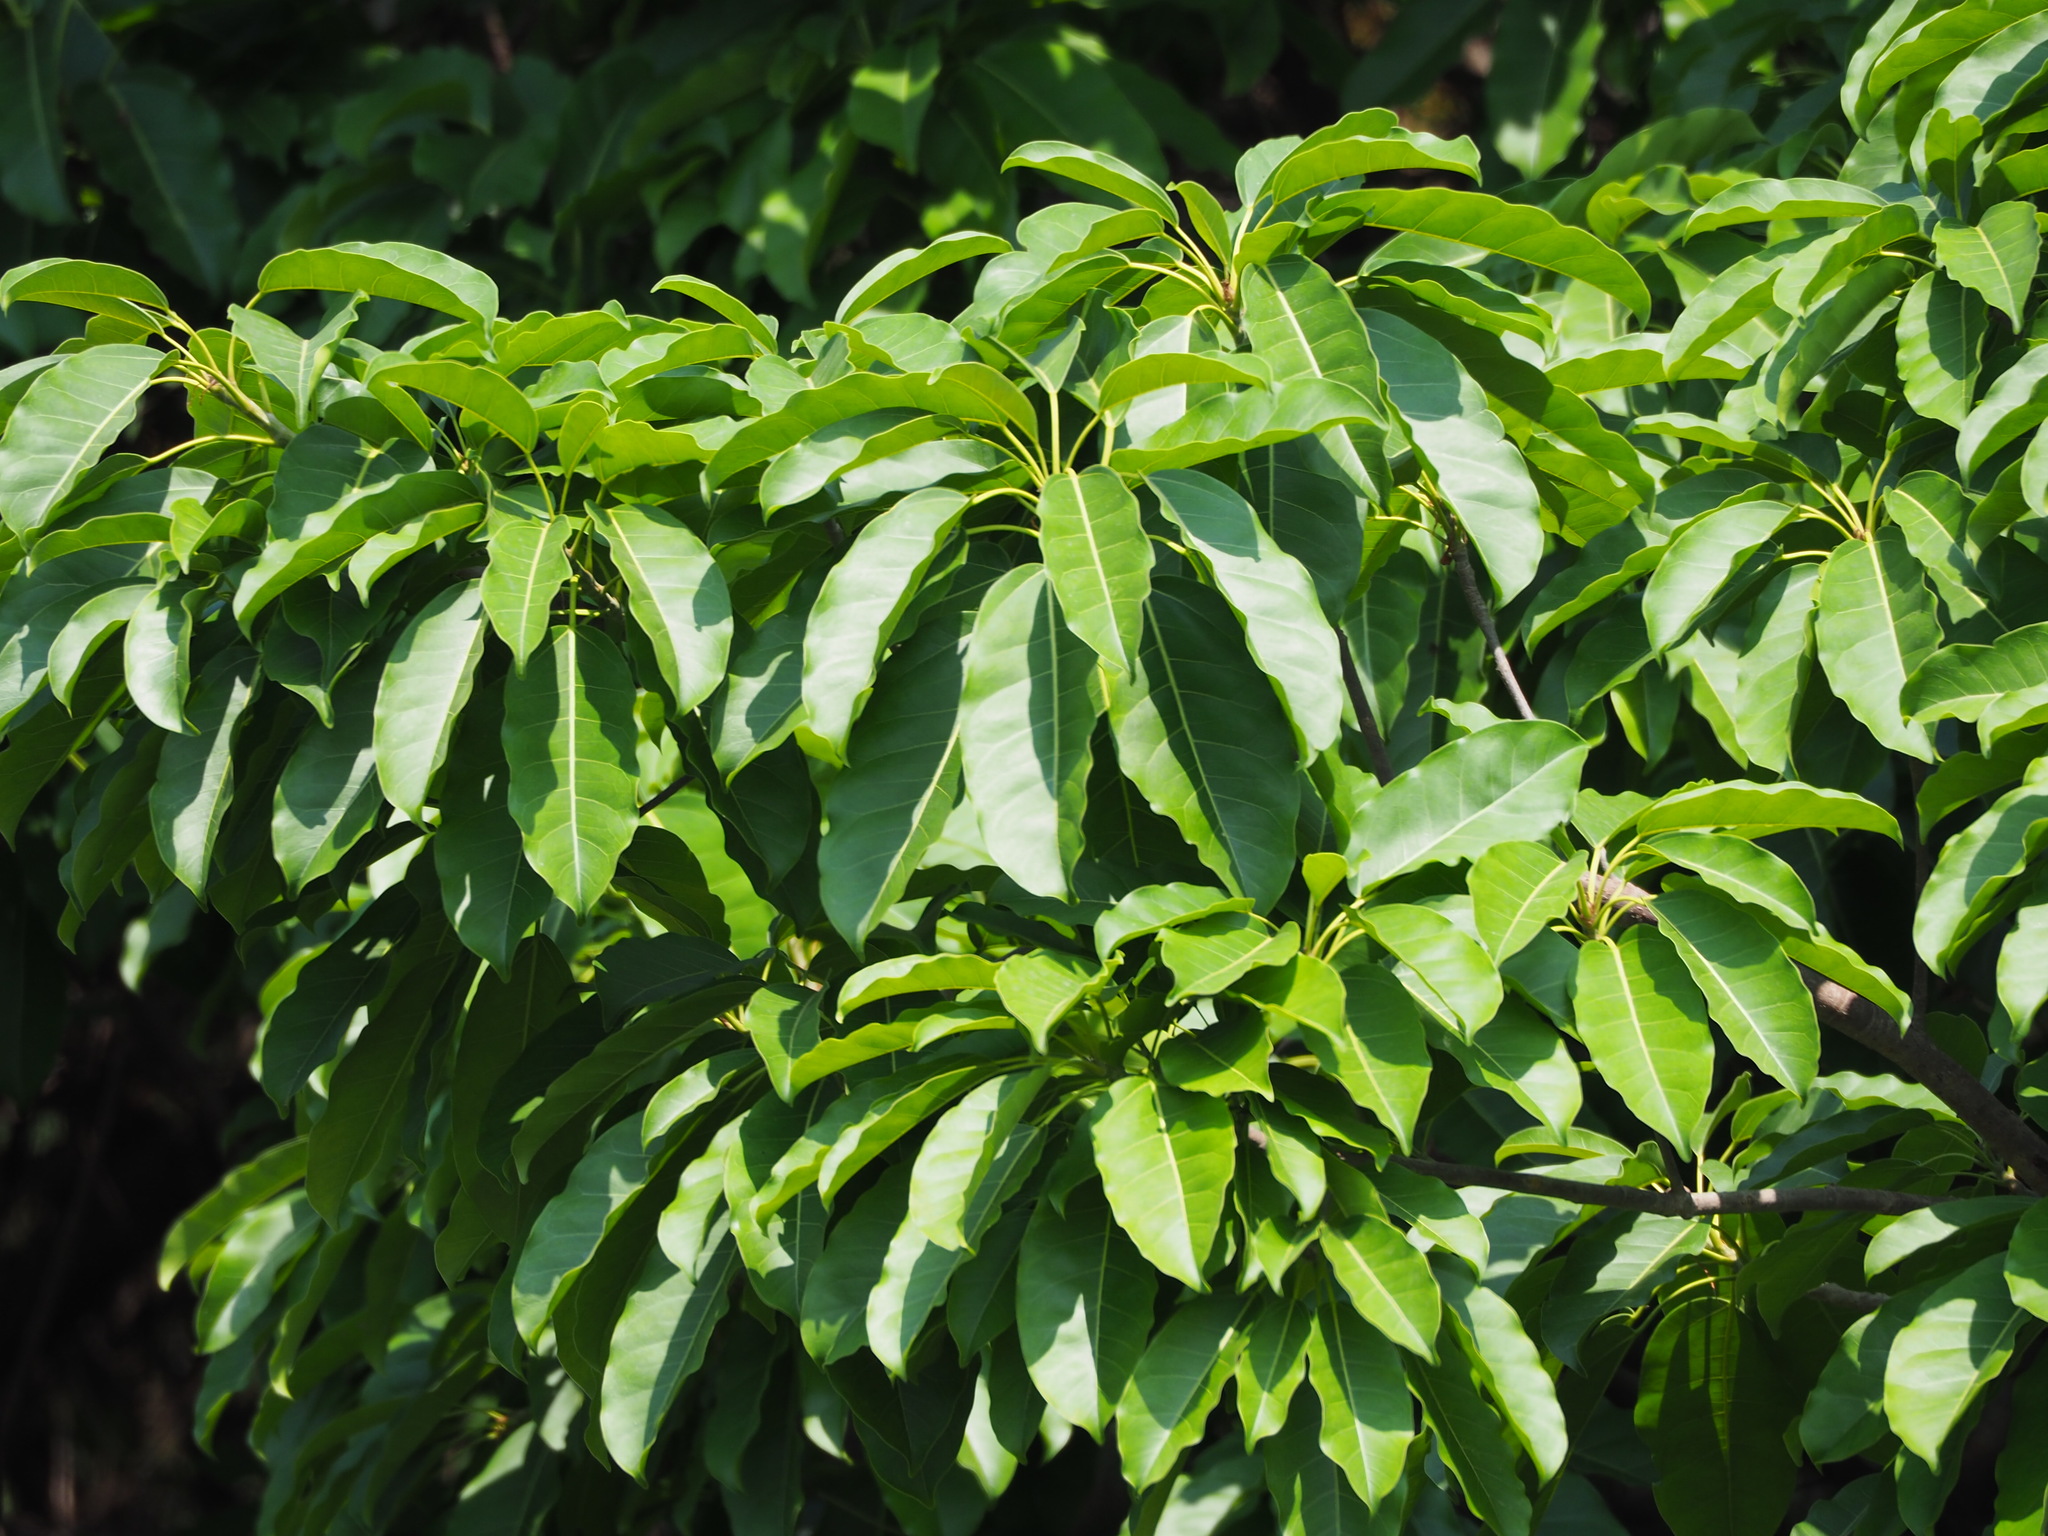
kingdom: Plantae
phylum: Tracheophyta
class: Magnoliopsida
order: Rosales
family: Moraceae
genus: Ficus
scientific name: Ficus subpisocarpa
